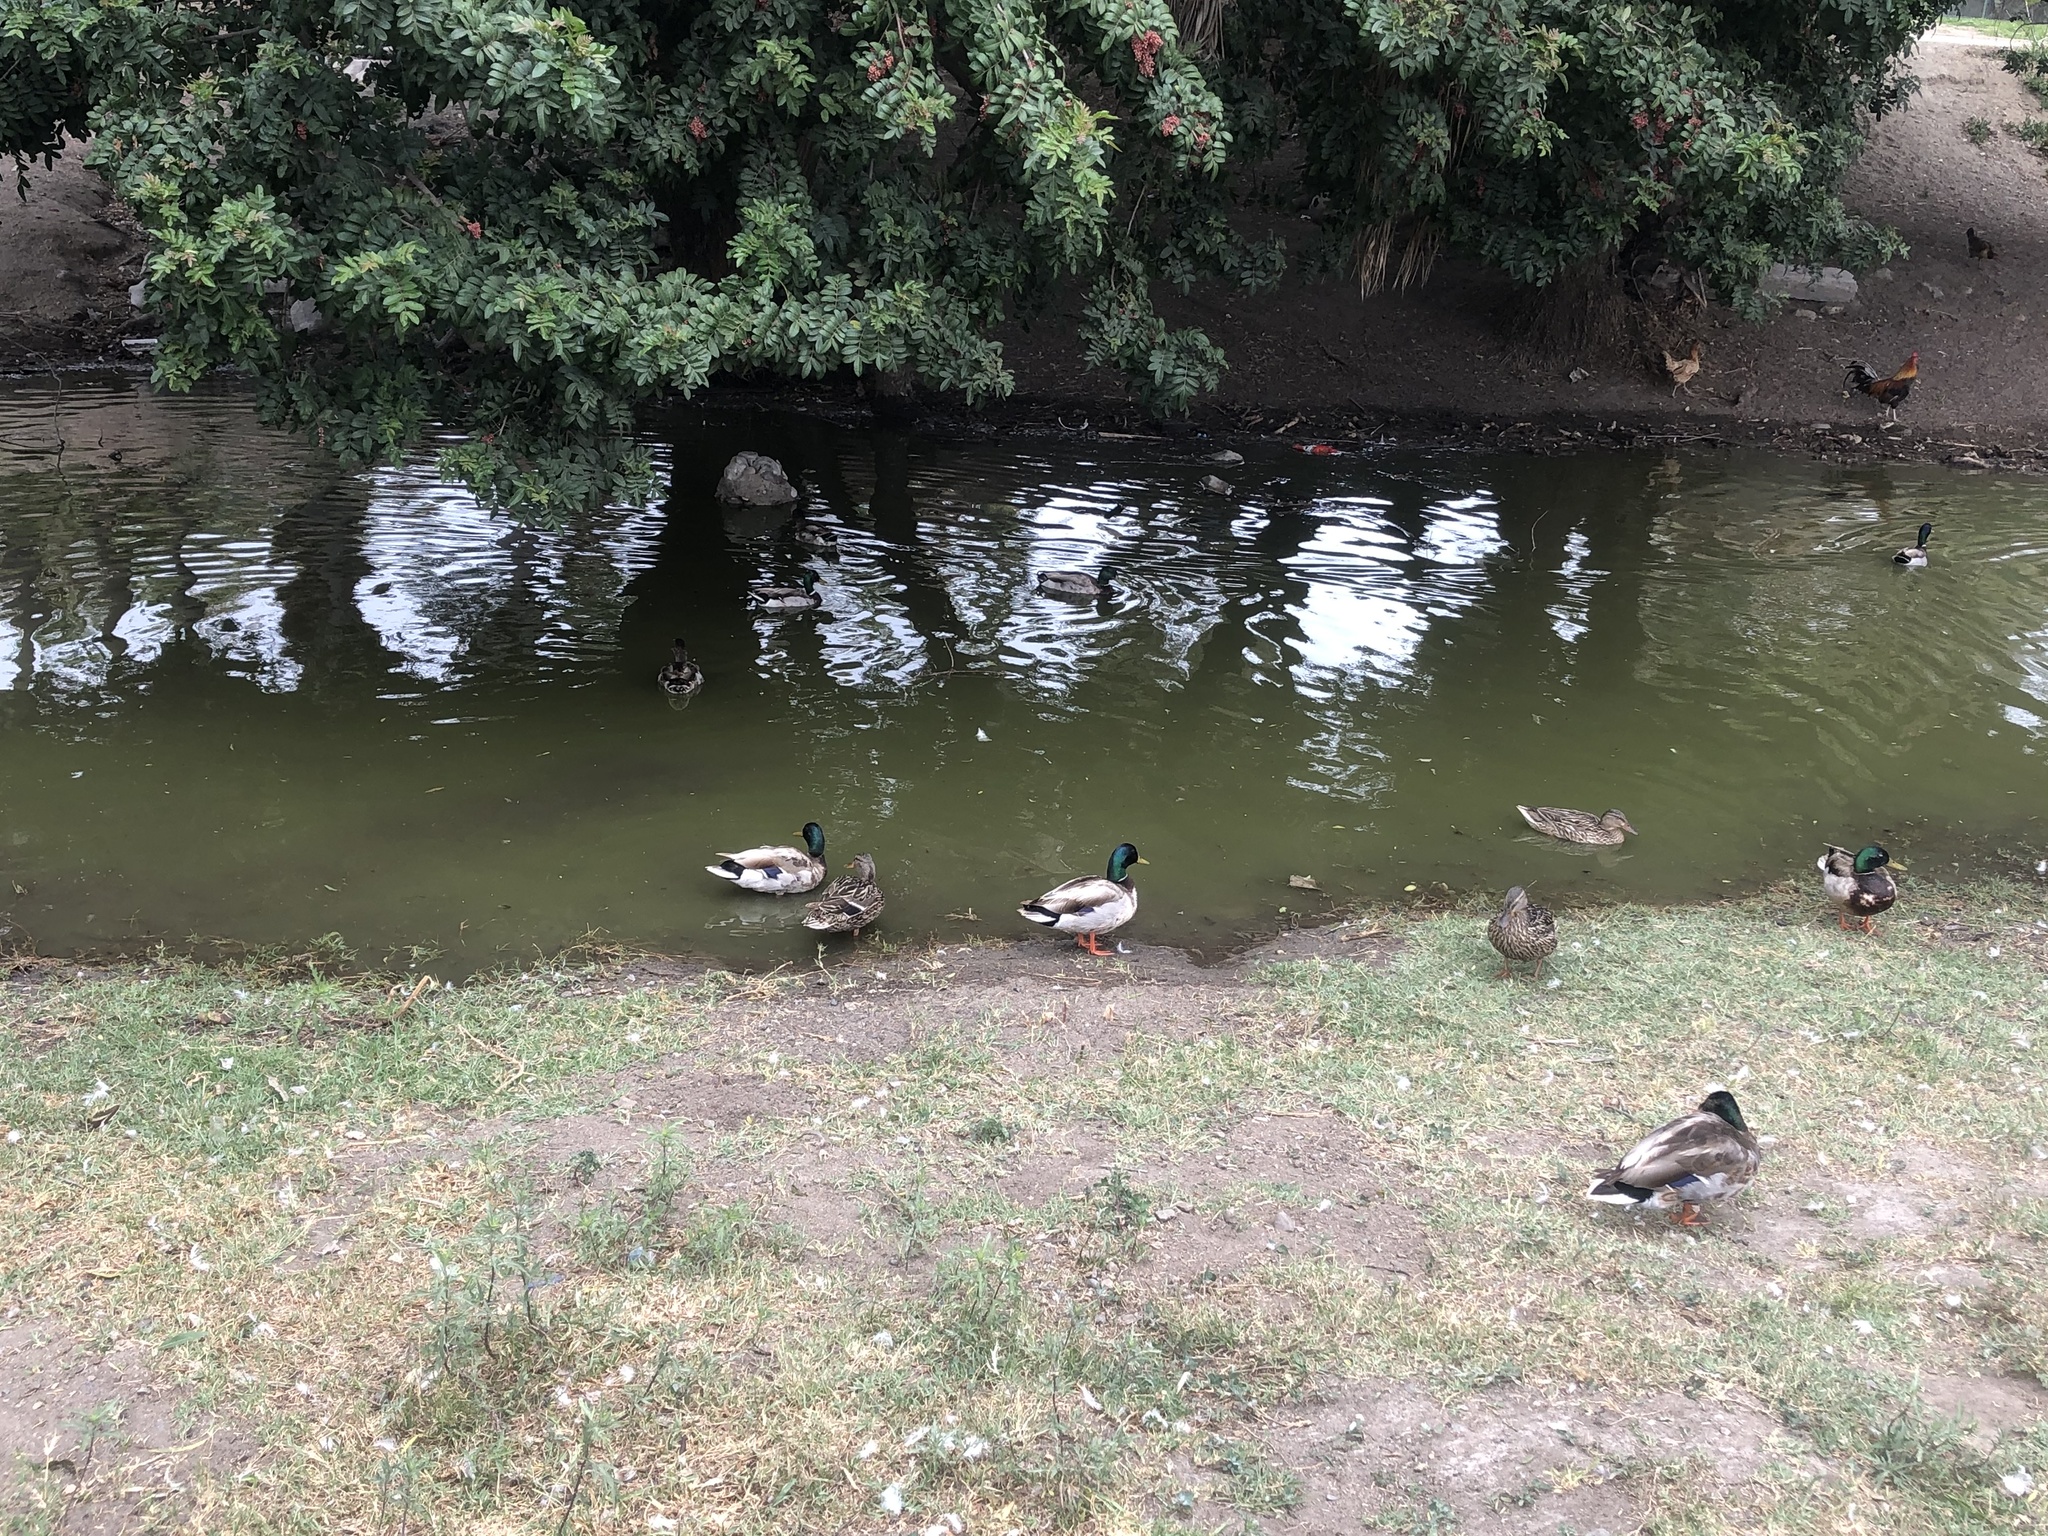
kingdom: Animalia
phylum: Chordata
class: Aves
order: Anseriformes
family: Anatidae
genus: Anas
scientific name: Anas platyrhynchos
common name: Mallard
